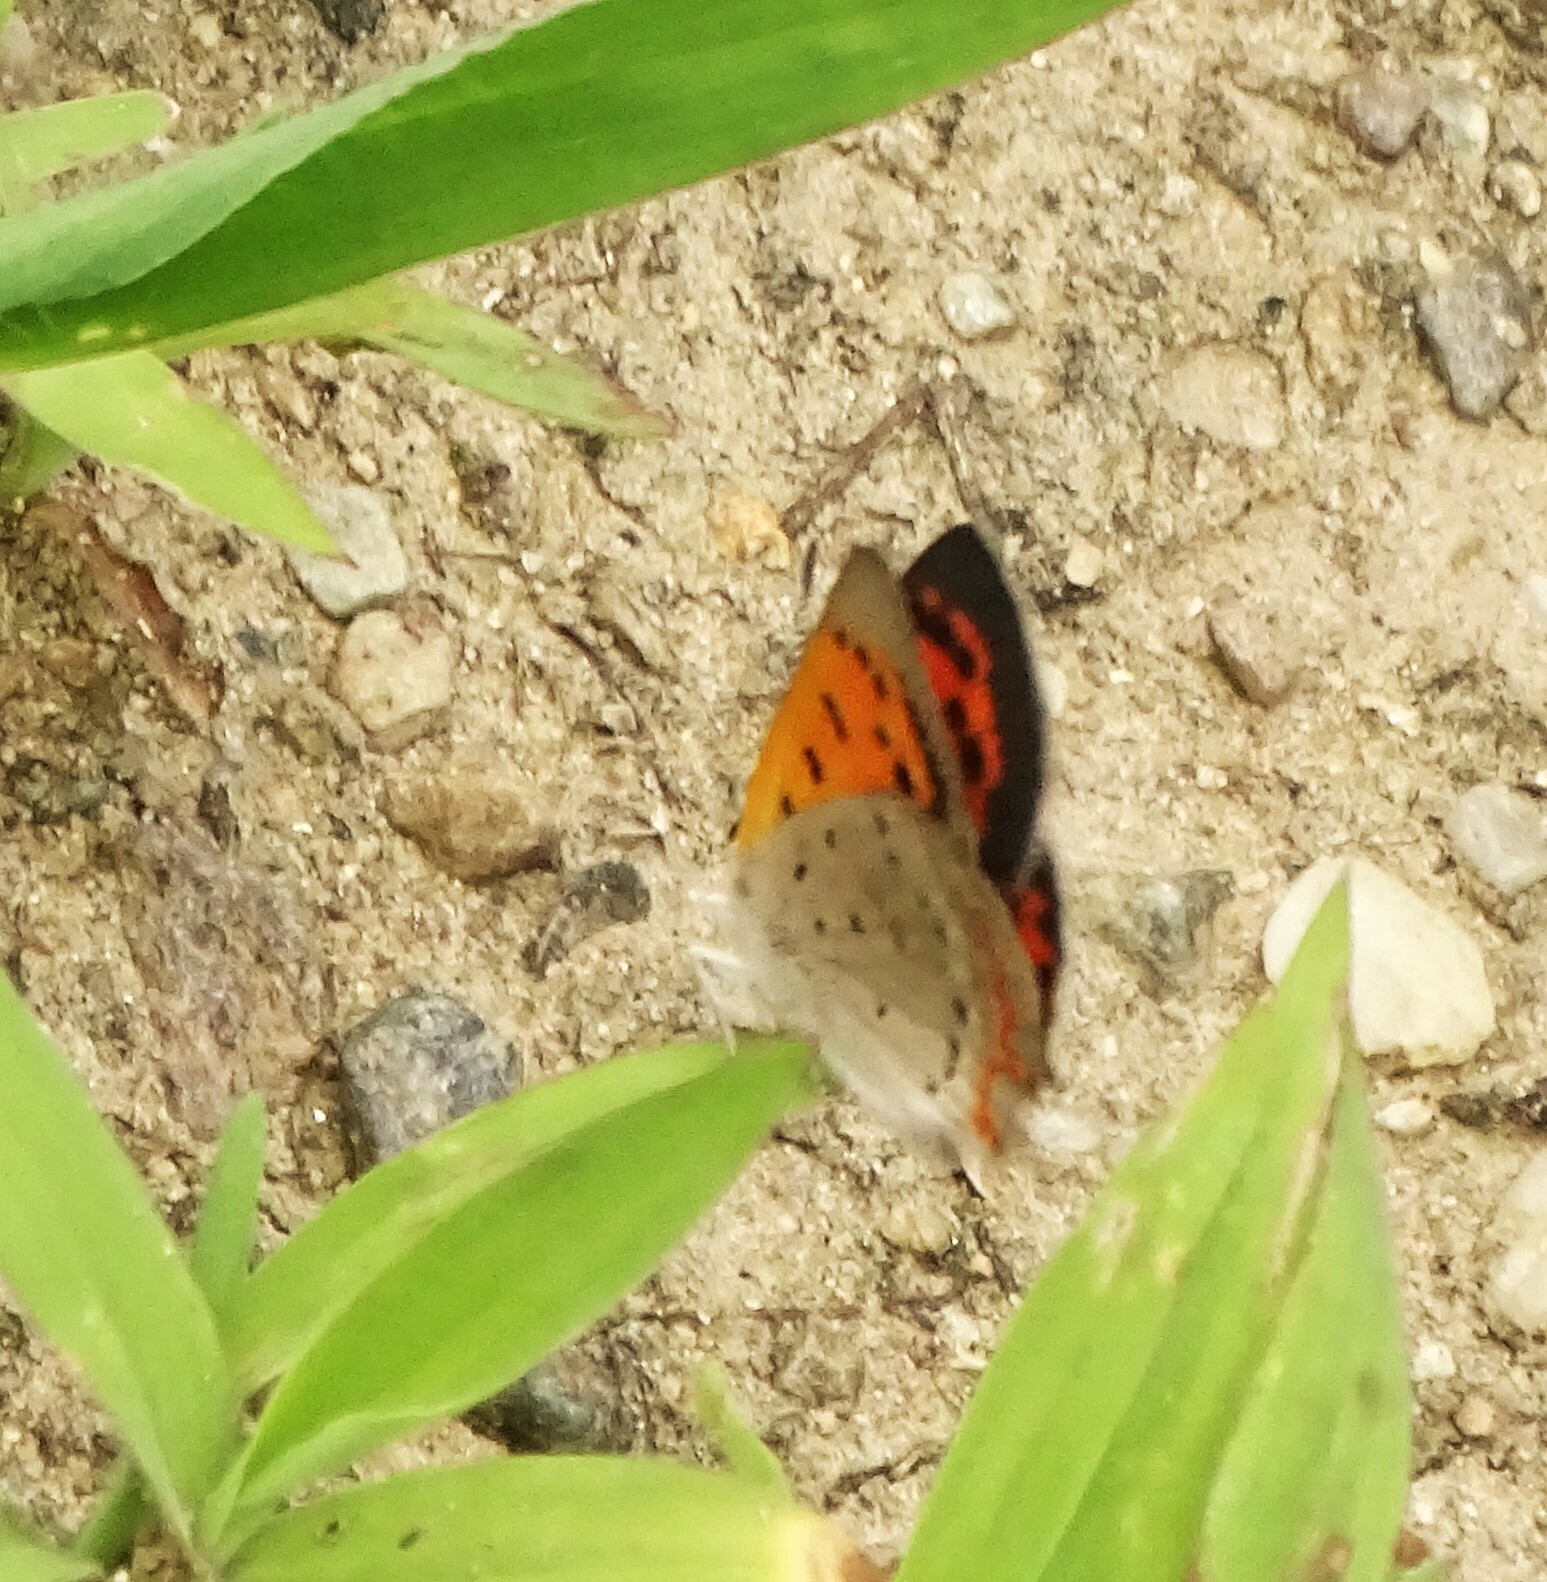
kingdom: Animalia
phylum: Arthropoda
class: Insecta
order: Lepidoptera
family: Lycaenidae
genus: Lycaena
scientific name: Lycaena hypophlaeas
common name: American copper
